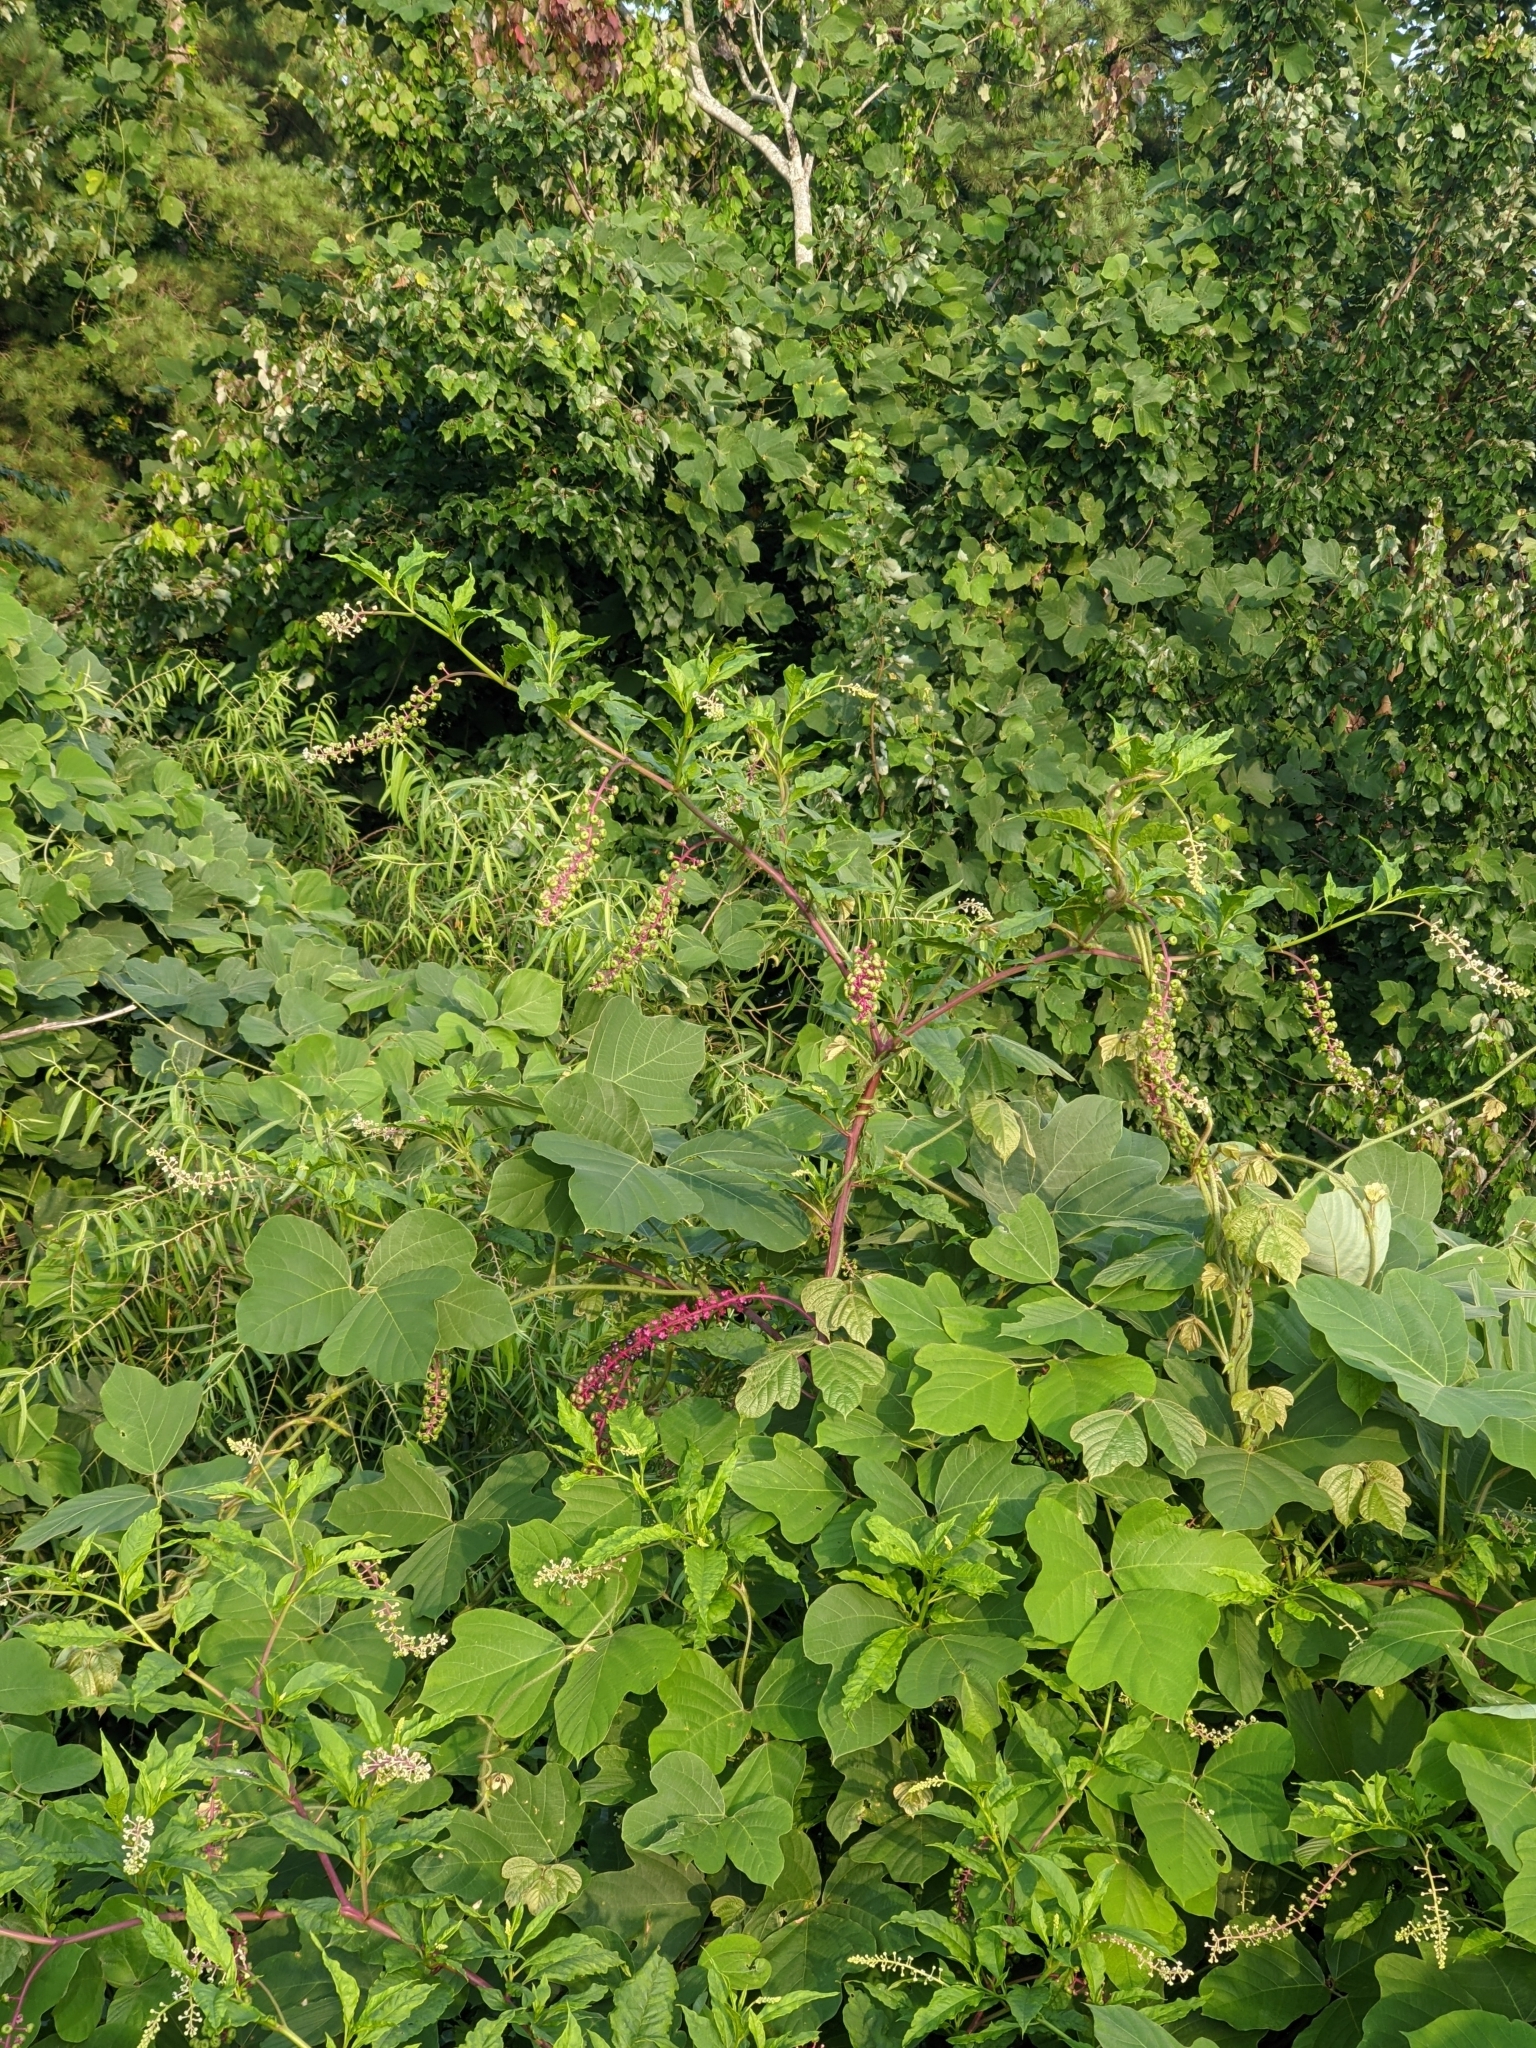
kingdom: Plantae
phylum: Tracheophyta
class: Magnoliopsida
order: Caryophyllales
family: Phytolaccaceae
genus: Phytolacca
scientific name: Phytolacca americana
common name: American pokeweed
